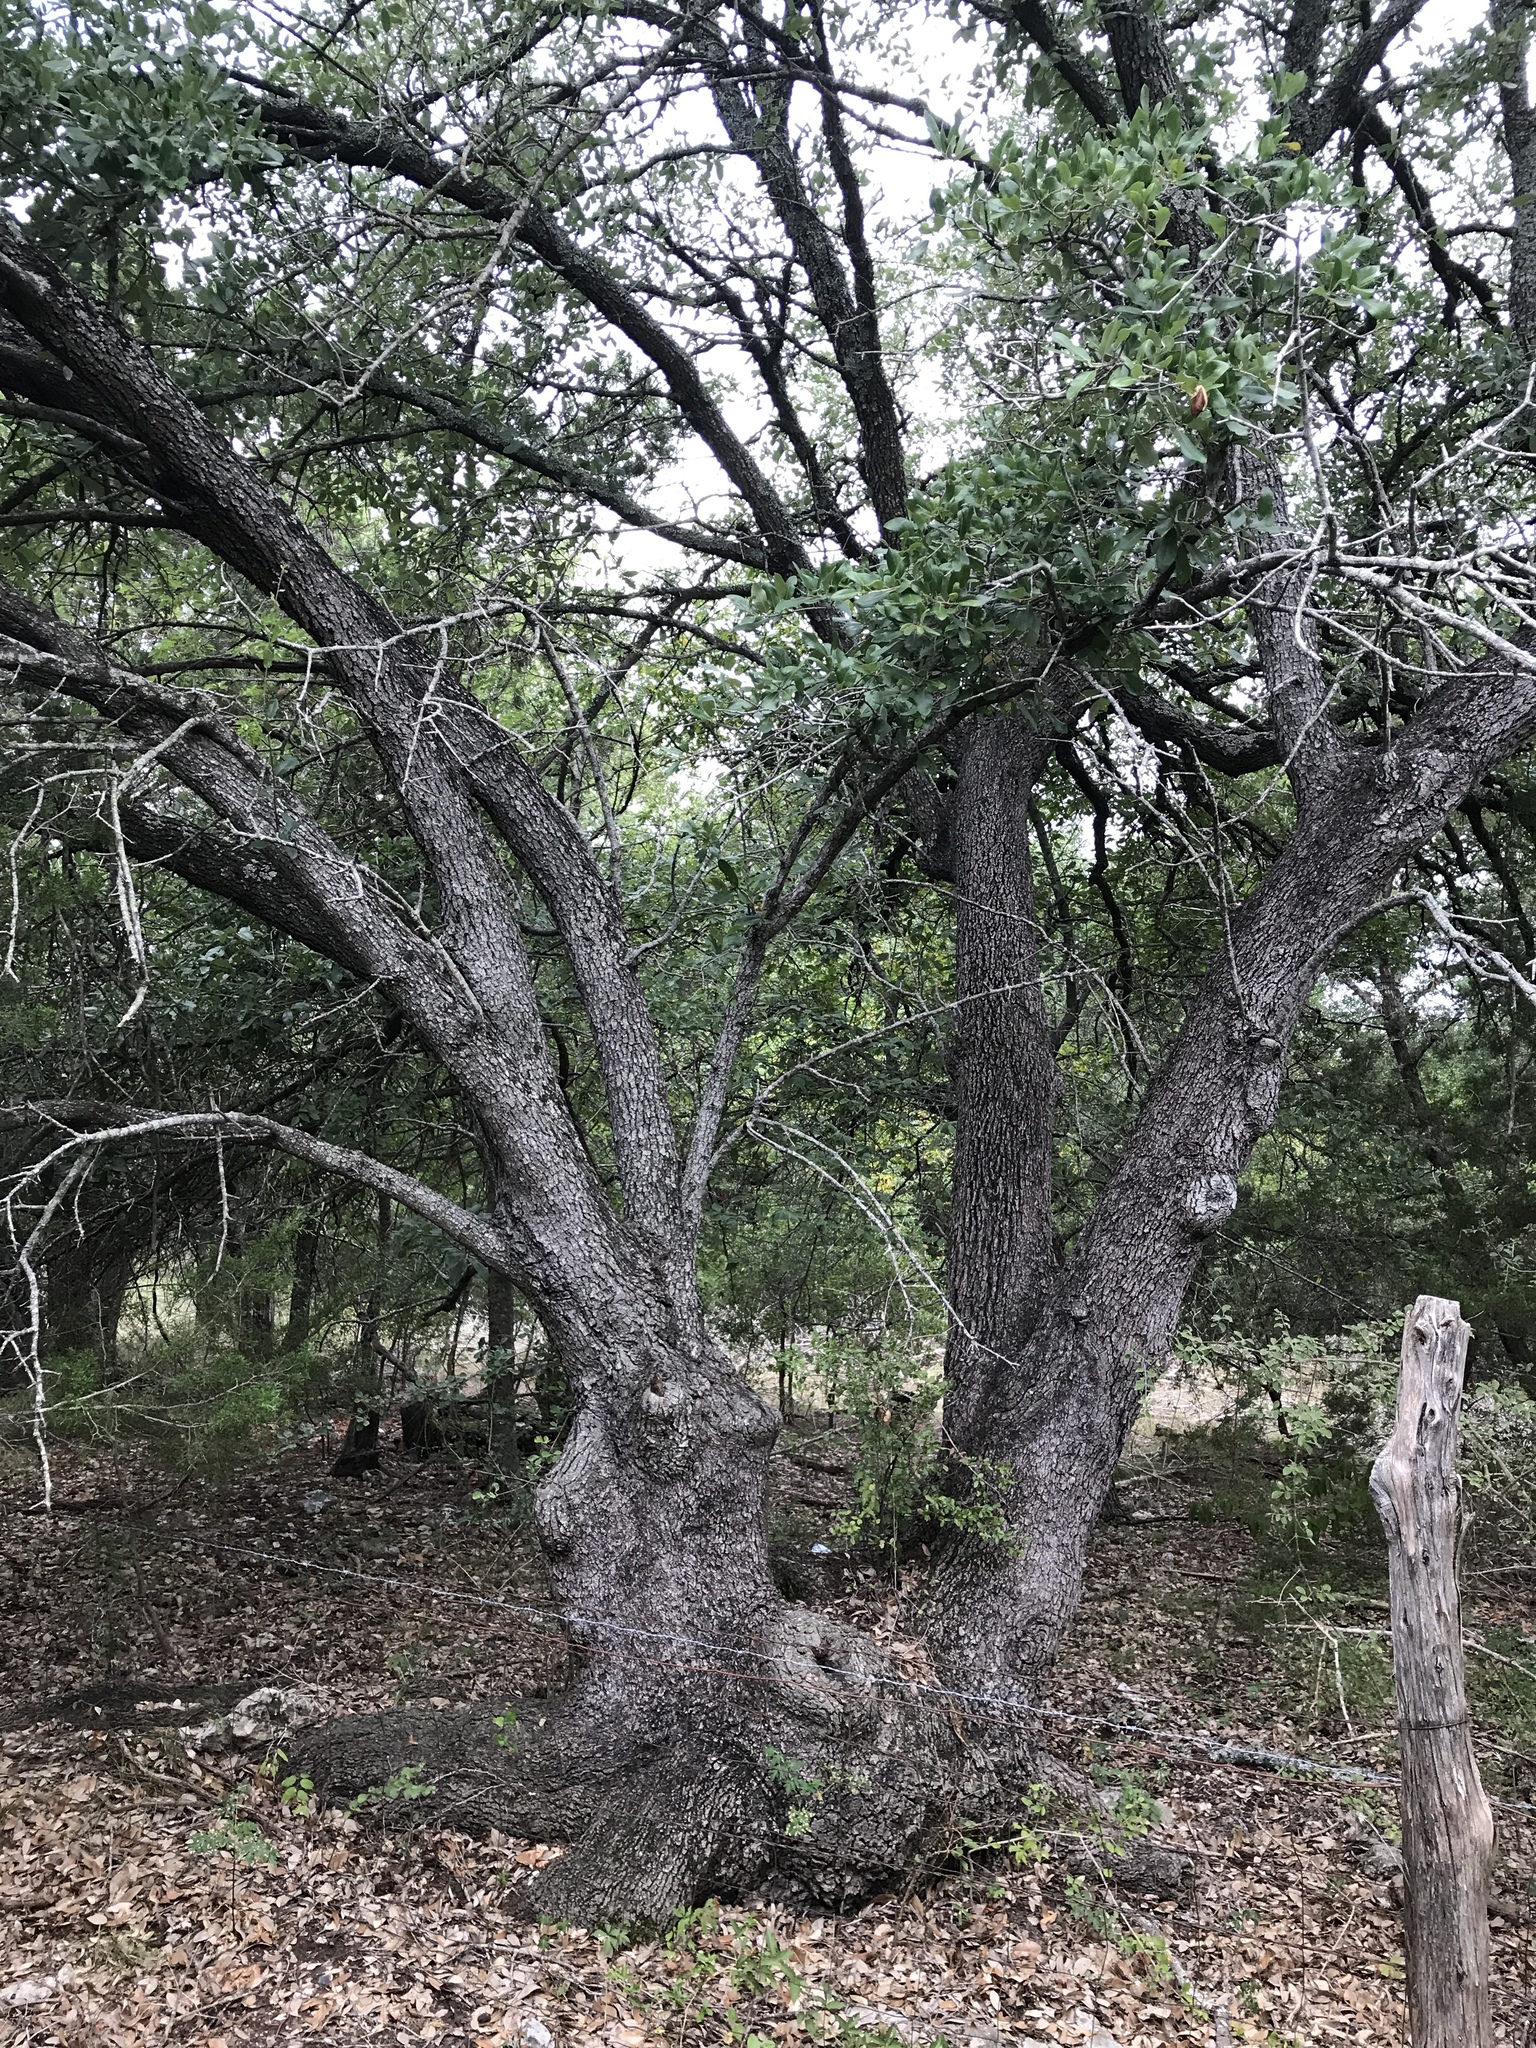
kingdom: Plantae
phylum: Tracheophyta
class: Magnoliopsida
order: Fagales
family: Fagaceae
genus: Quercus
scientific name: Quercus fusiformis
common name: Texas live oak
